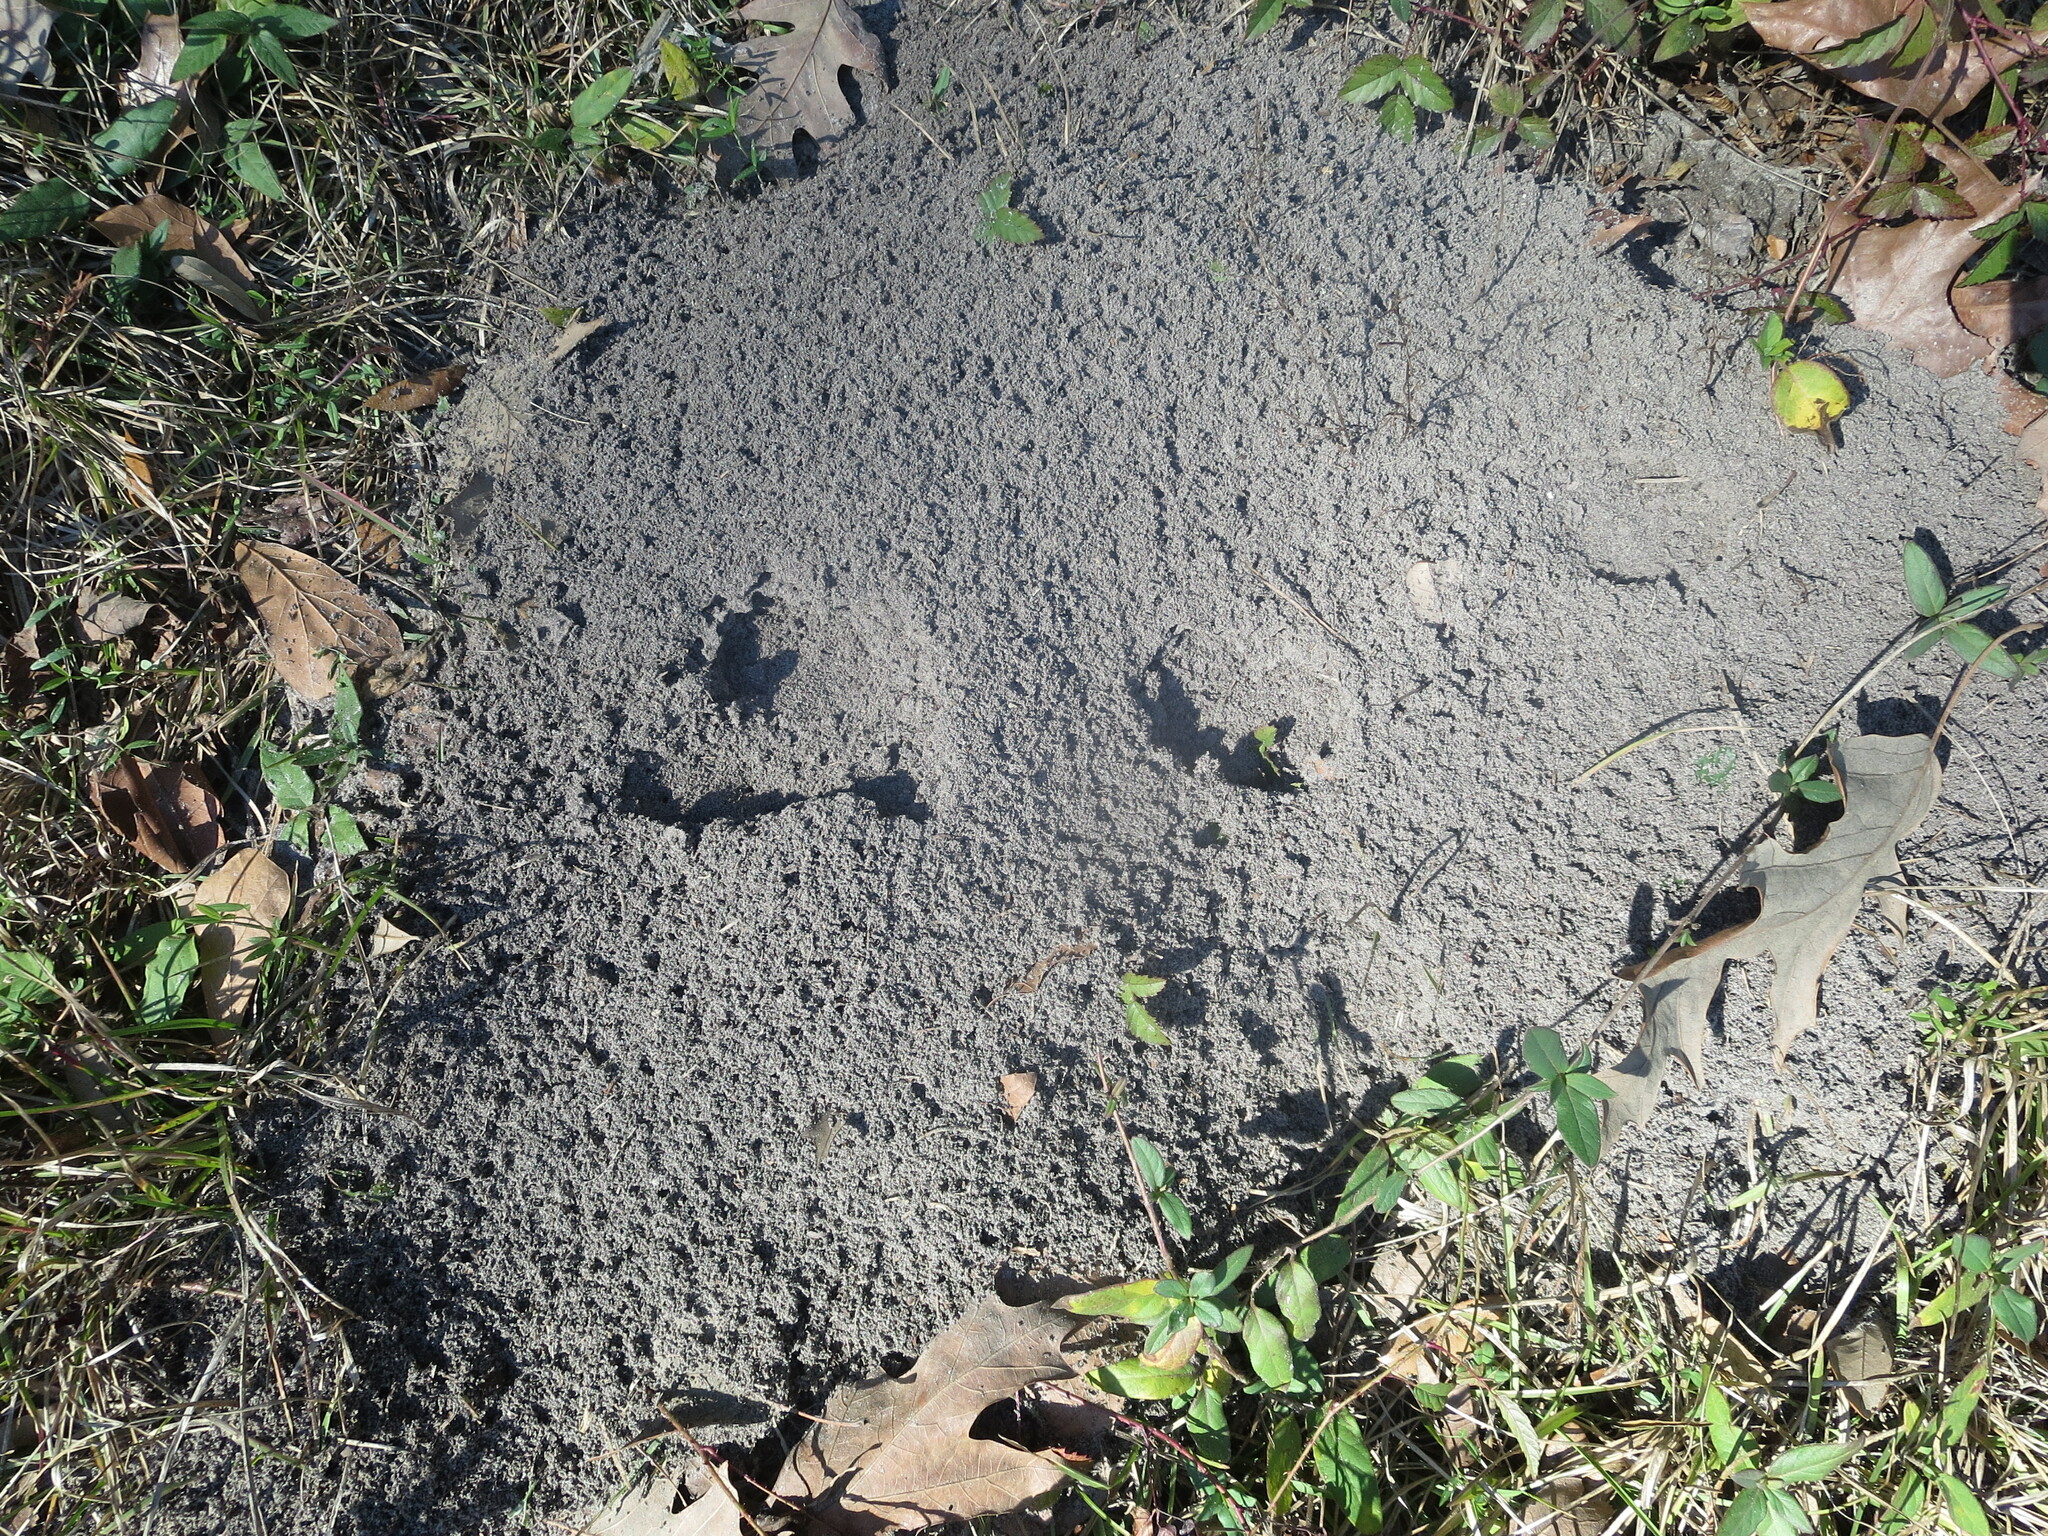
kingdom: Animalia
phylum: Arthropoda
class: Insecta
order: Hymenoptera
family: Formicidae
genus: Solenopsis
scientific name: Solenopsis invicta
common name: Red imported fire ant
